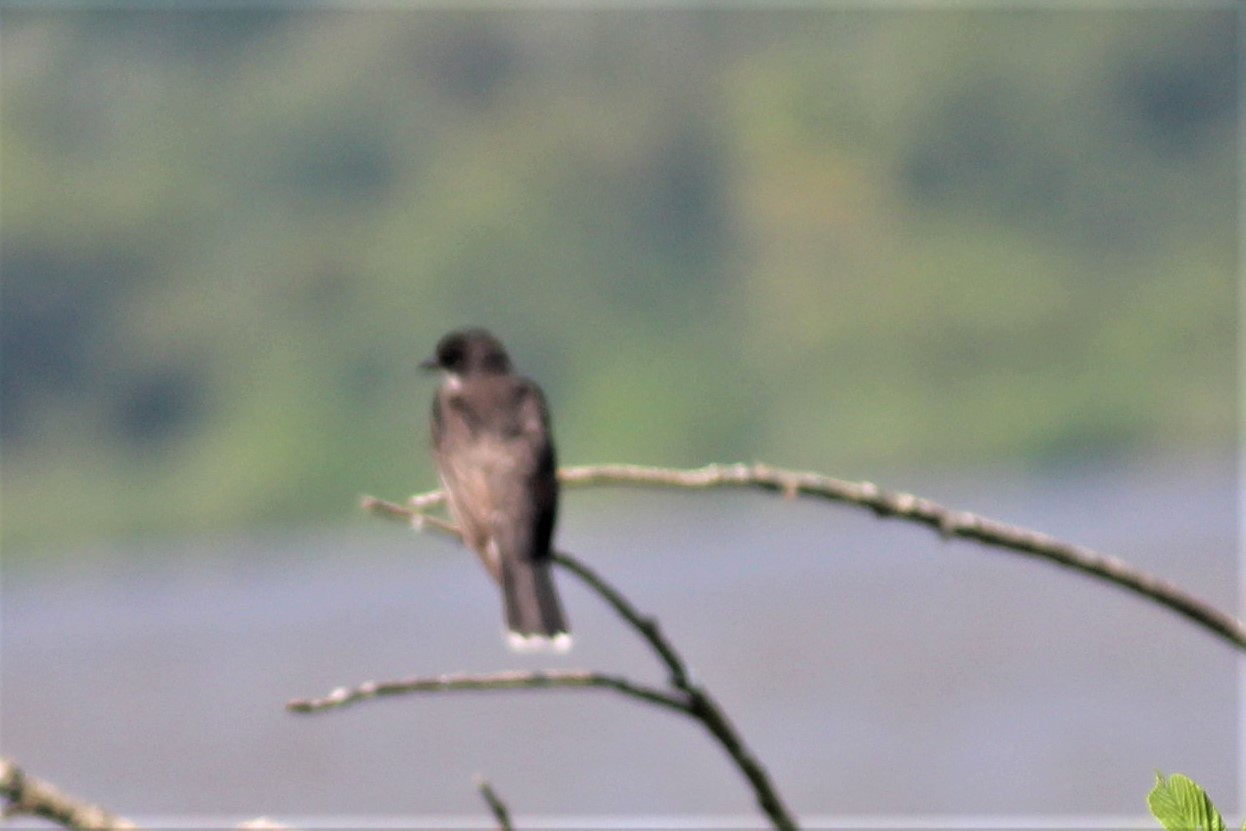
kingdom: Animalia
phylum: Chordata
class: Aves
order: Passeriformes
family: Tyrannidae
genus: Tyrannus
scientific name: Tyrannus tyrannus
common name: Eastern kingbird
